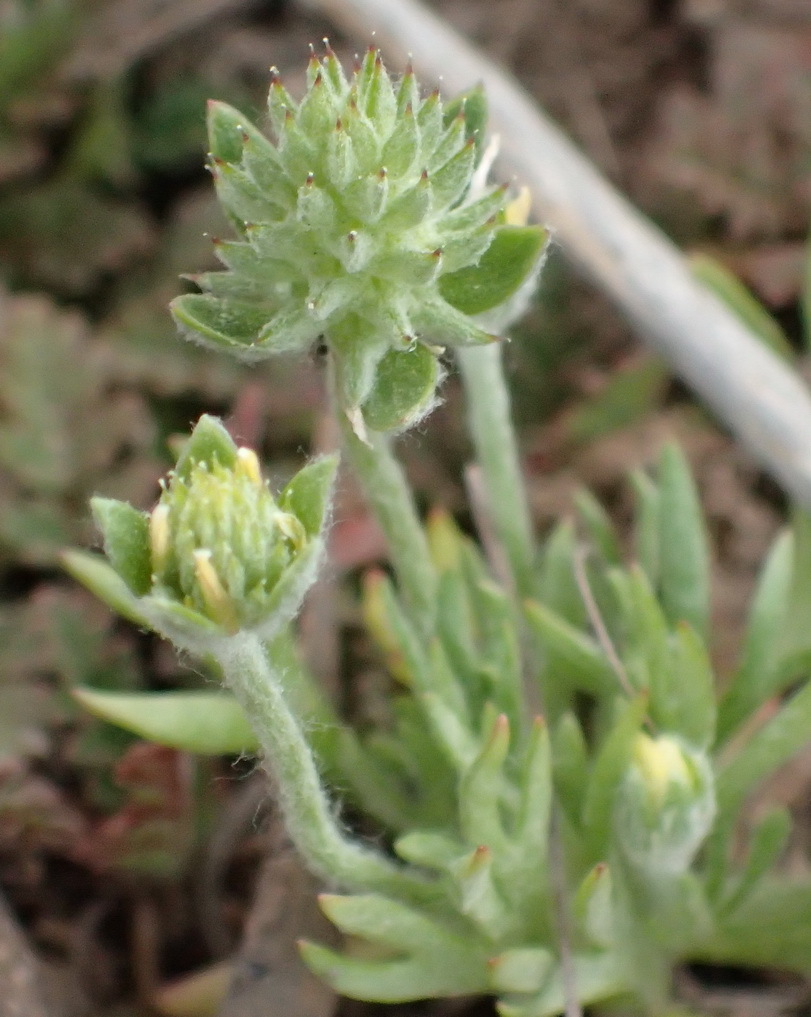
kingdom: Plantae
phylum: Tracheophyta
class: Magnoliopsida
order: Ranunculales
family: Ranunculaceae
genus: Ceratocephala
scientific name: Ceratocephala orthoceras
